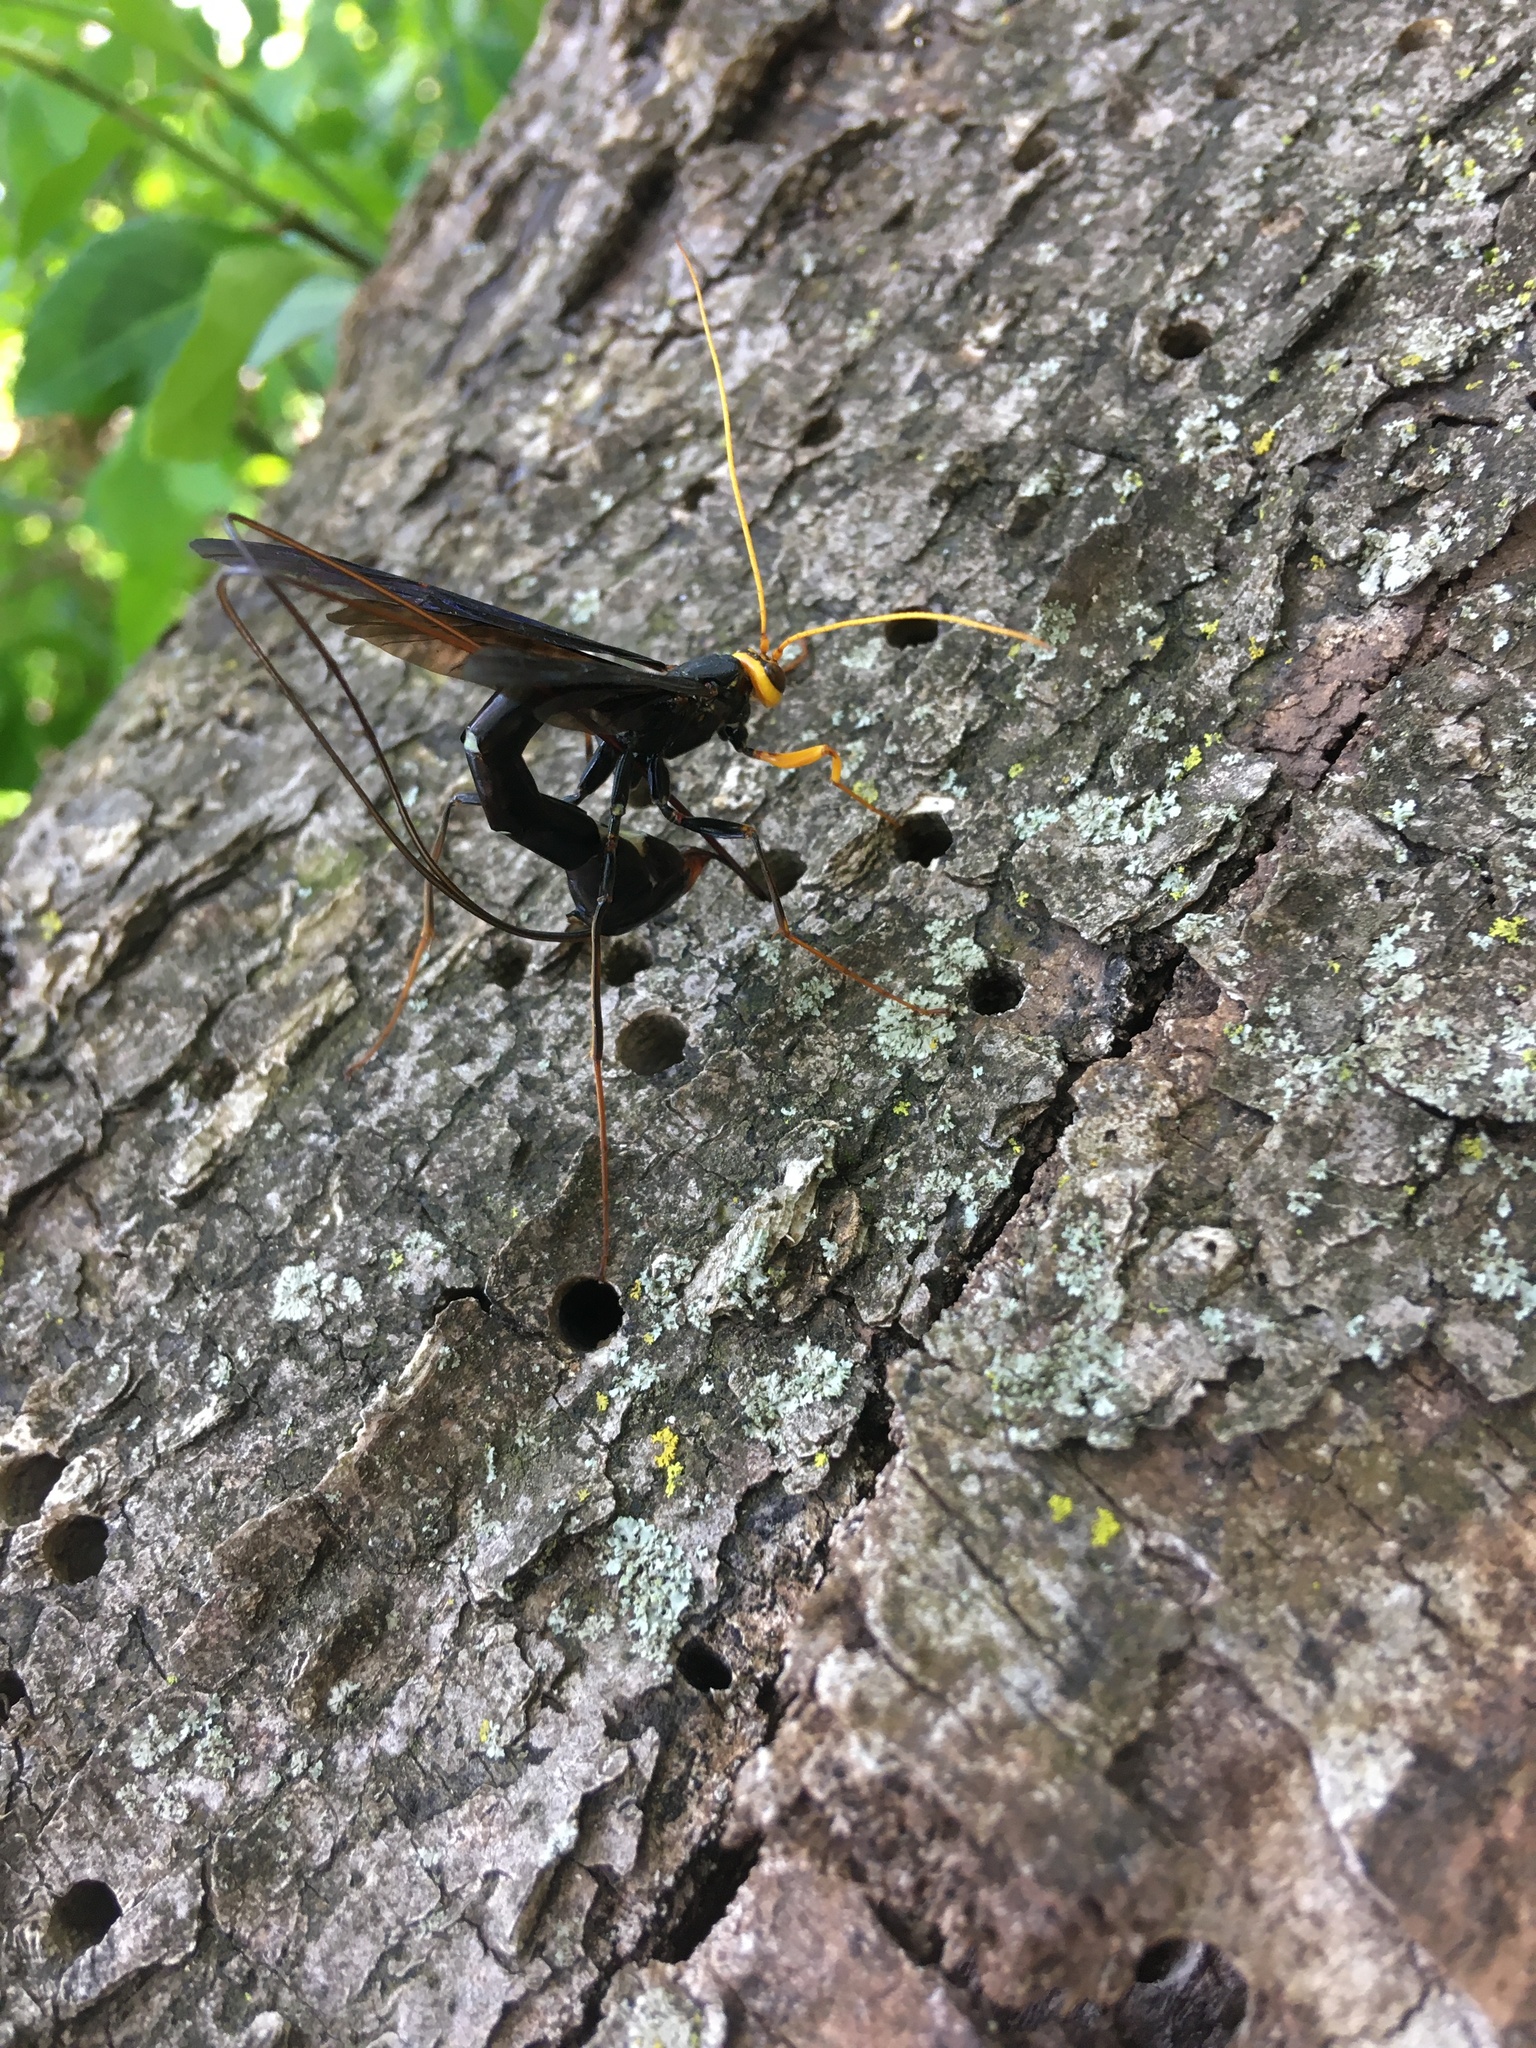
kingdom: Animalia
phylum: Arthropoda
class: Insecta
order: Hymenoptera
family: Ichneumonidae
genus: Megarhyssa
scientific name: Megarhyssa atrata
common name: Black giant ichneumonid wasp
